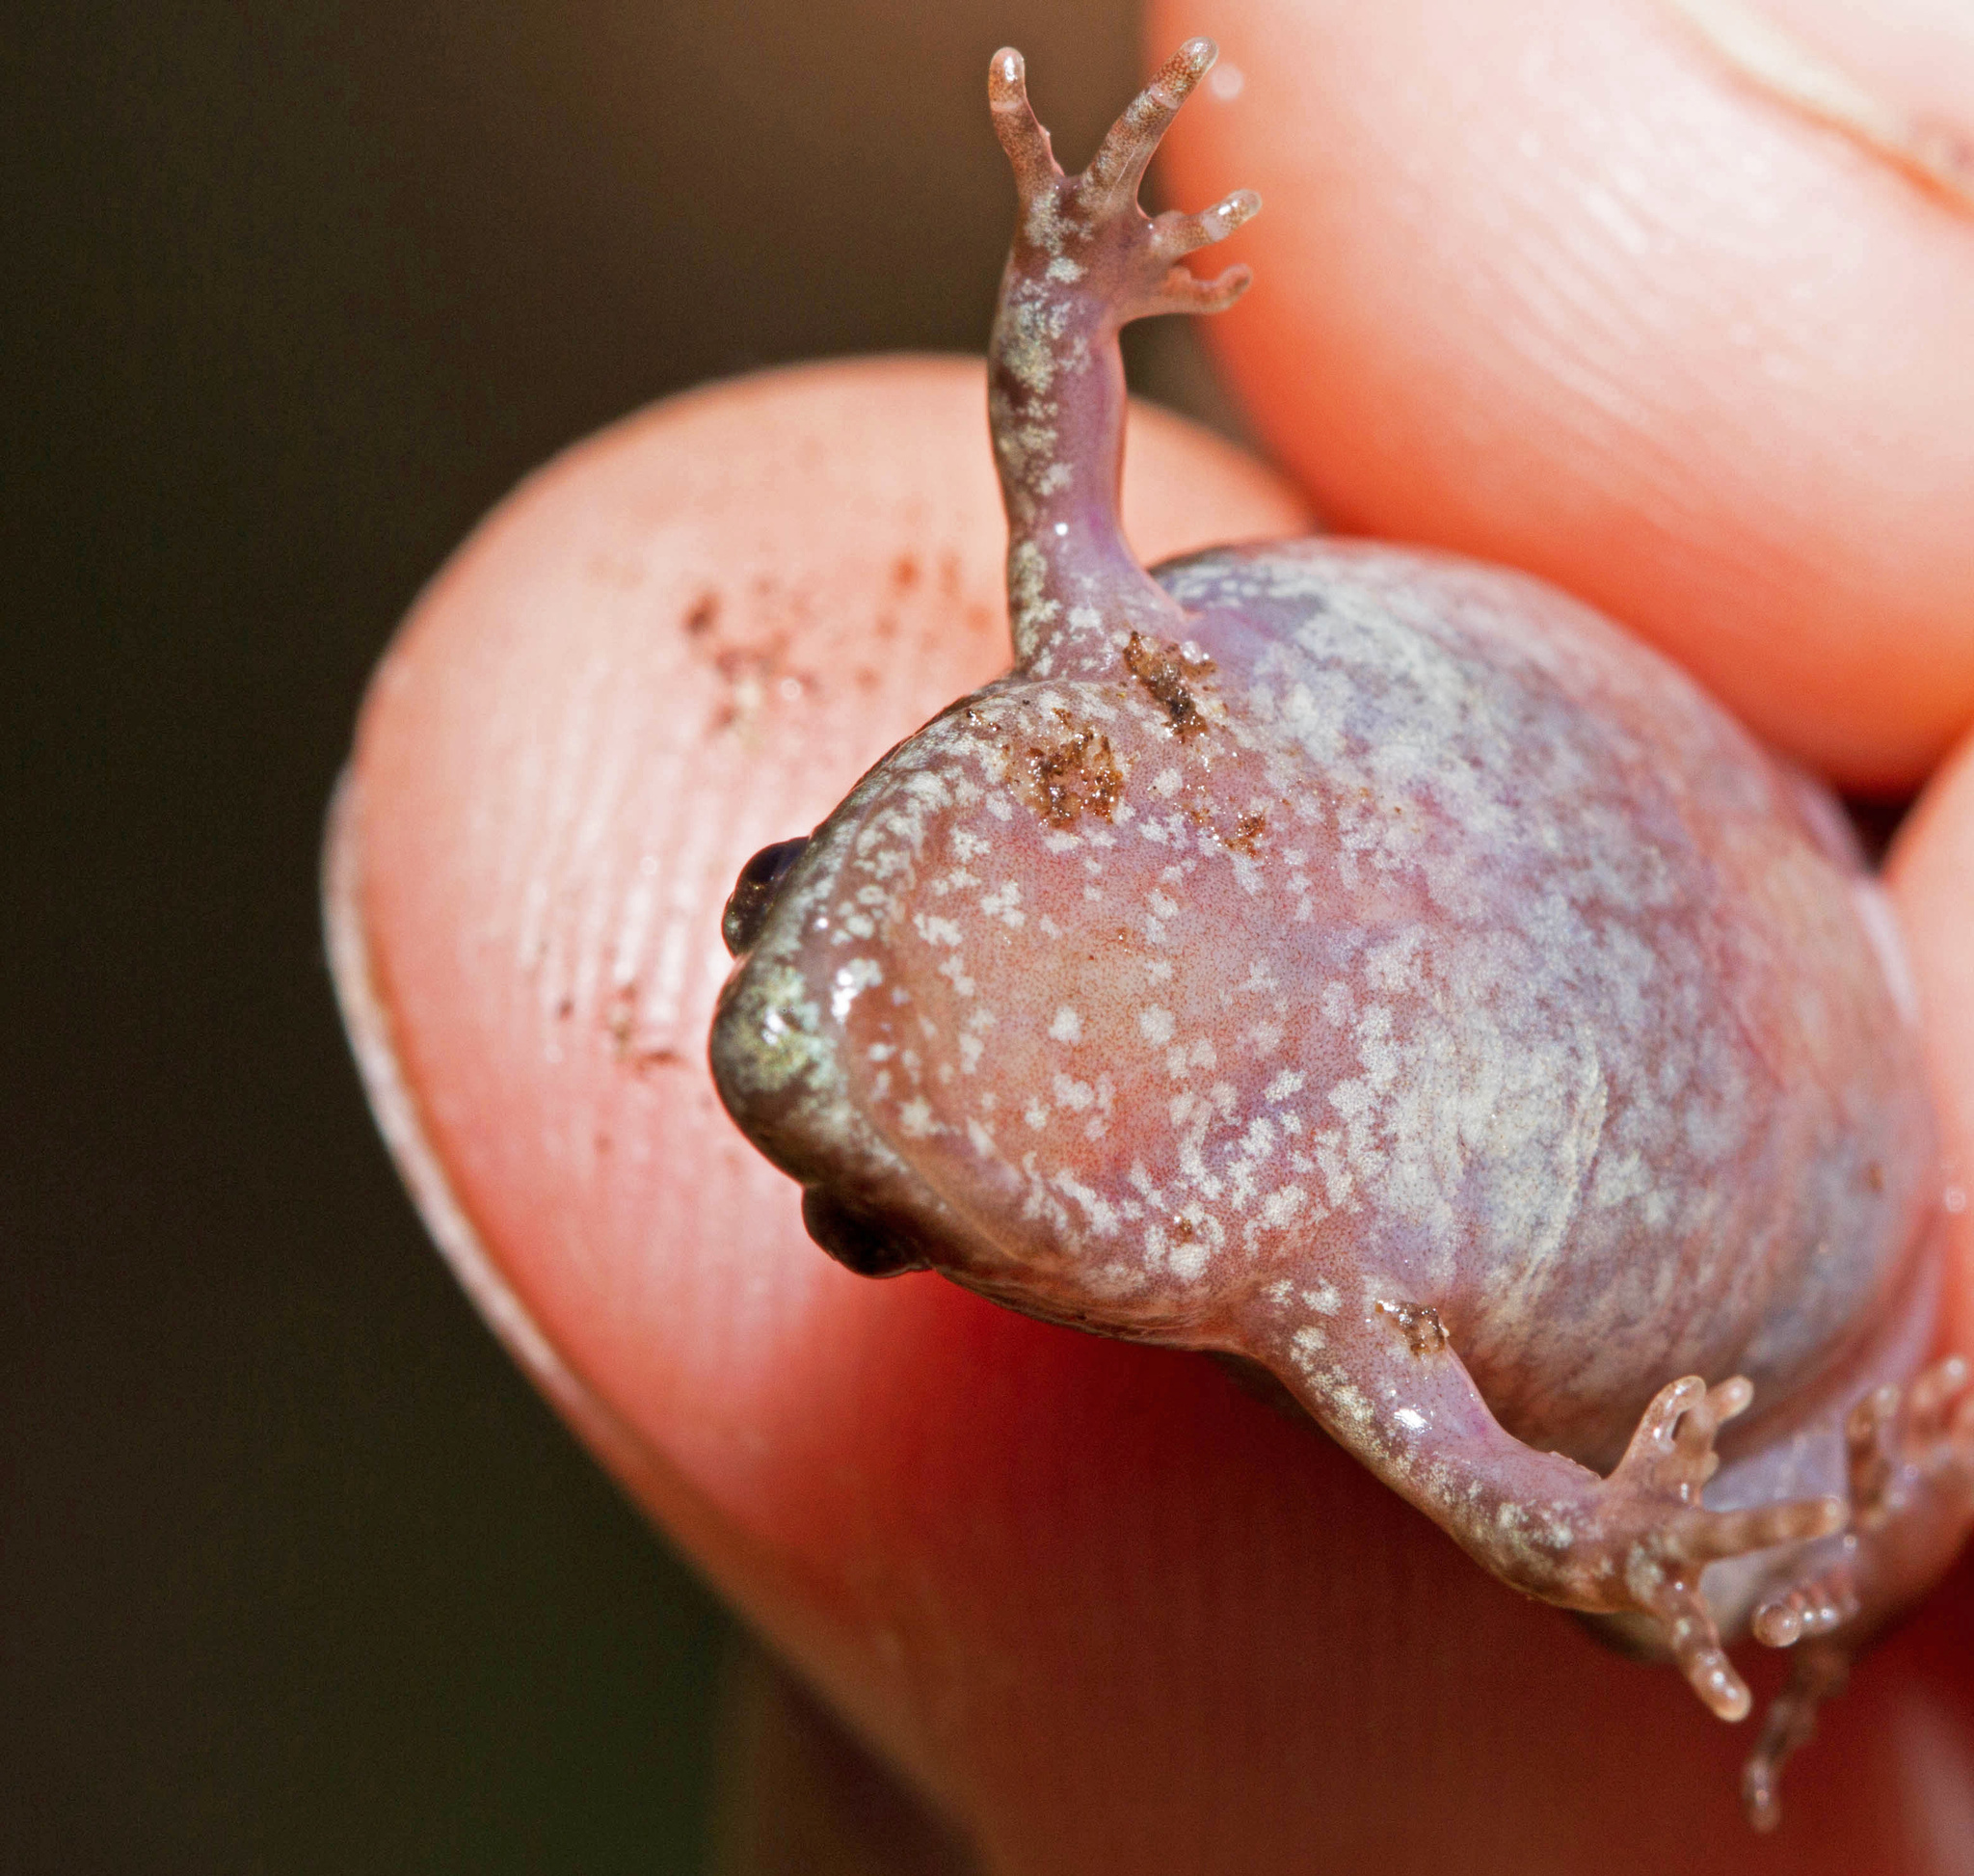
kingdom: Animalia
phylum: Chordata
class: Amphibia
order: Anura
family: Microhylidae
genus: Gastrophryne
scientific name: Gastrophryne carolinensis
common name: Eastern narrowmouth toad
